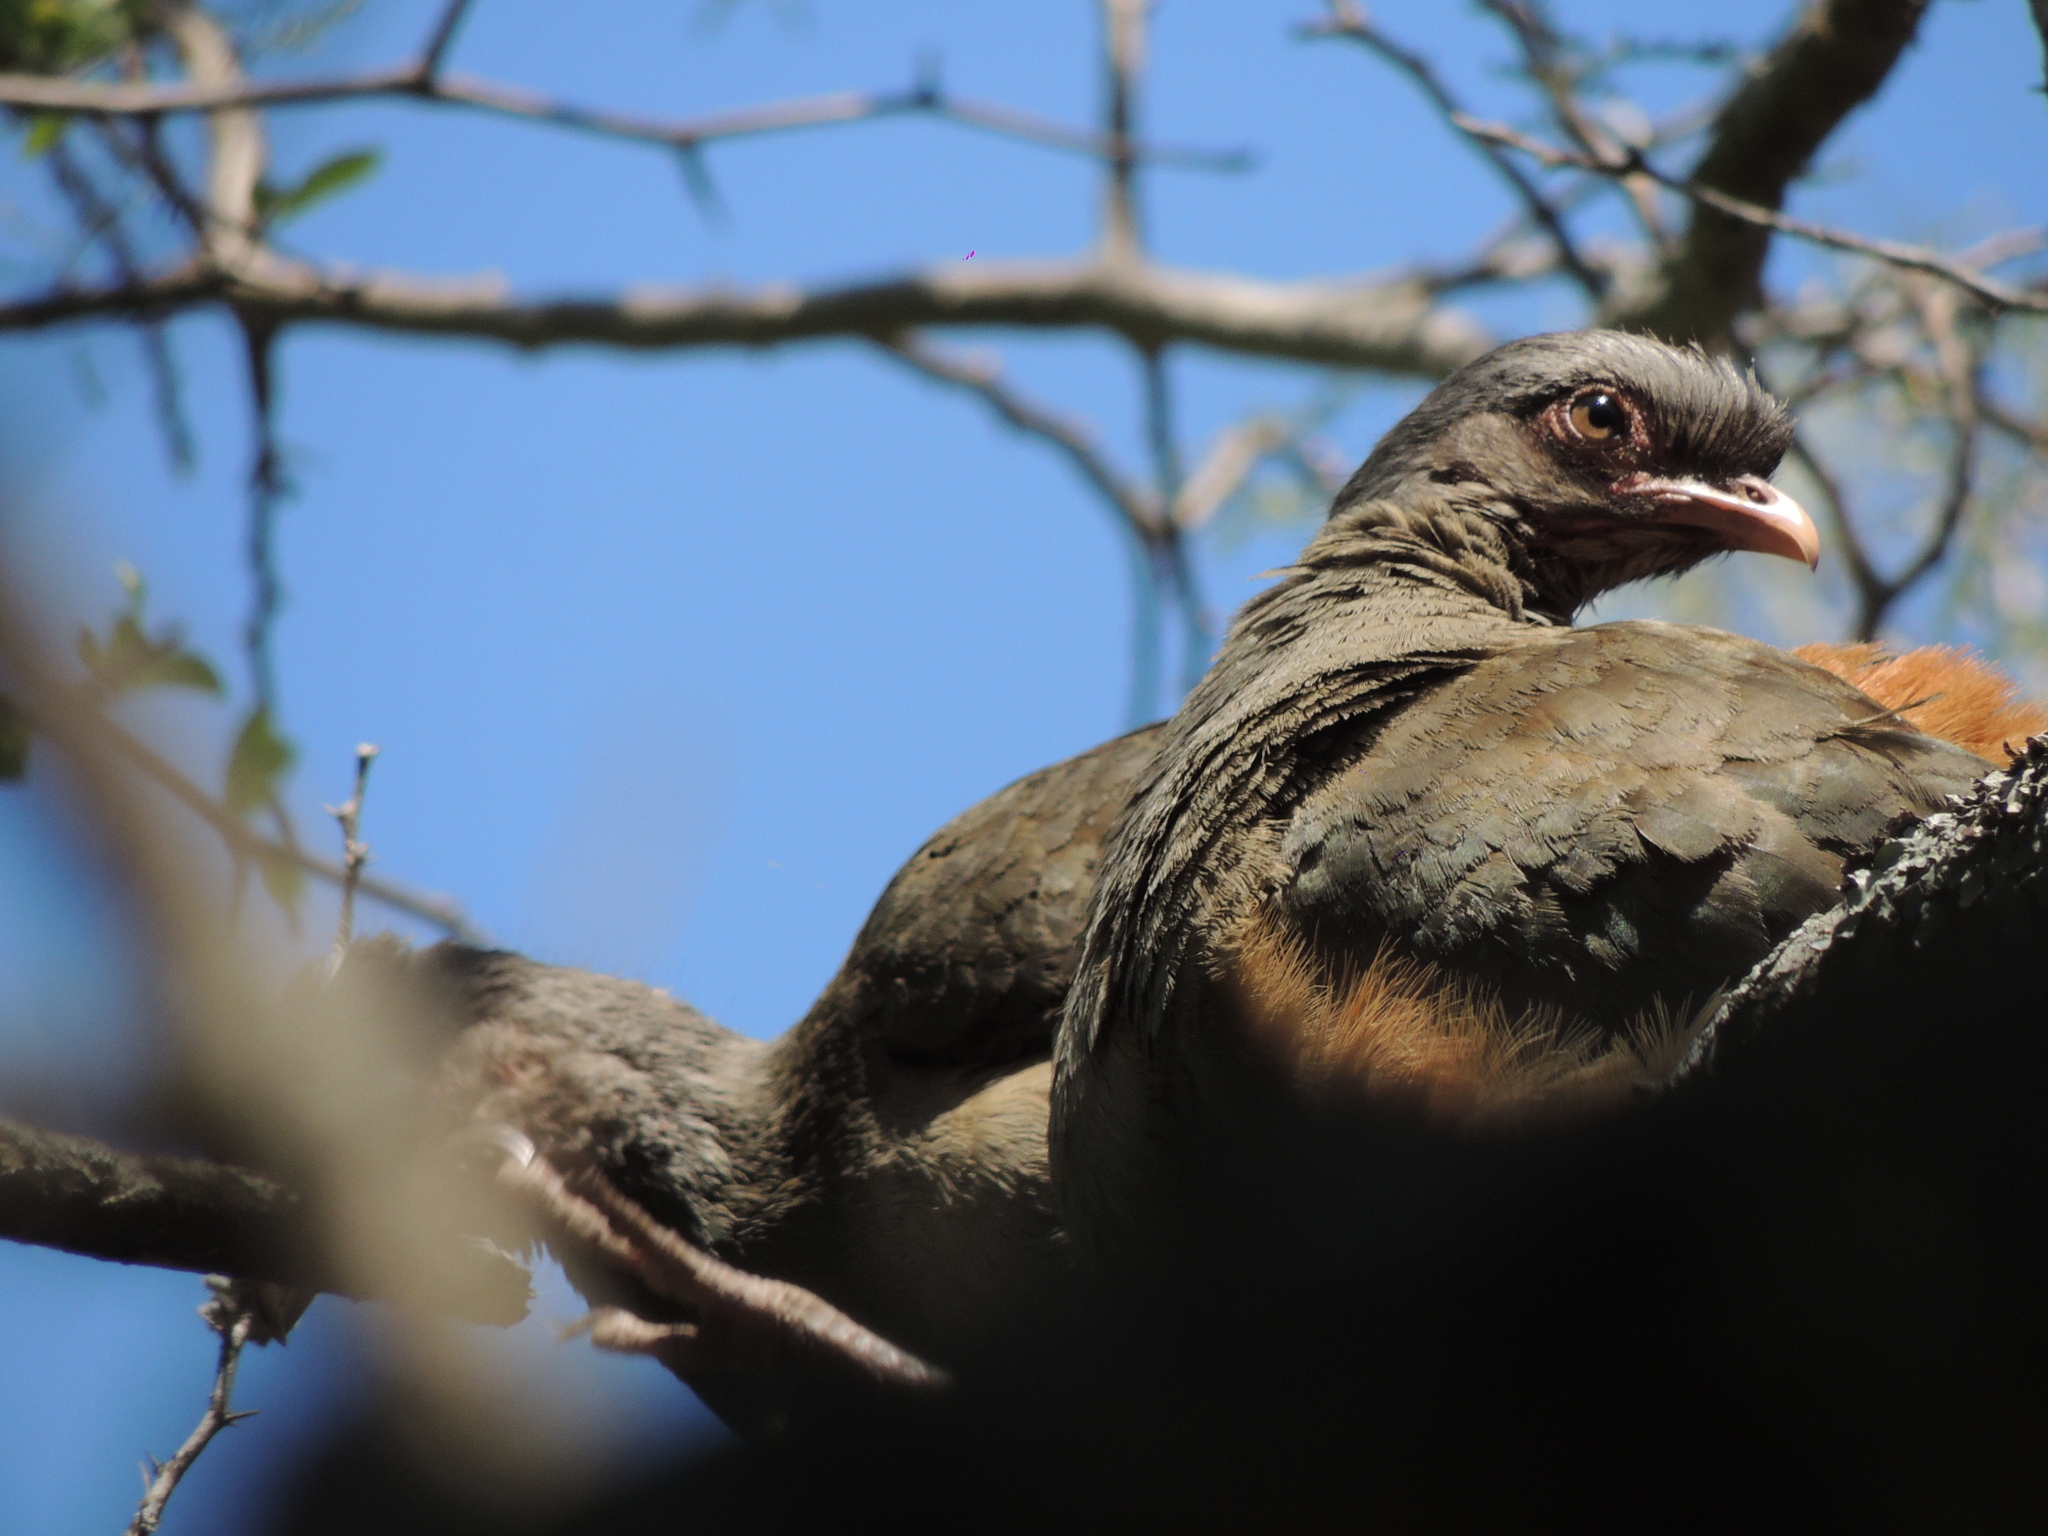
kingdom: Animalia
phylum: Chordata
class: Aves
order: Galliformes
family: Cracidae
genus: Ortalis
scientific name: Ortalis canicollis
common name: Chaco chachalaca
